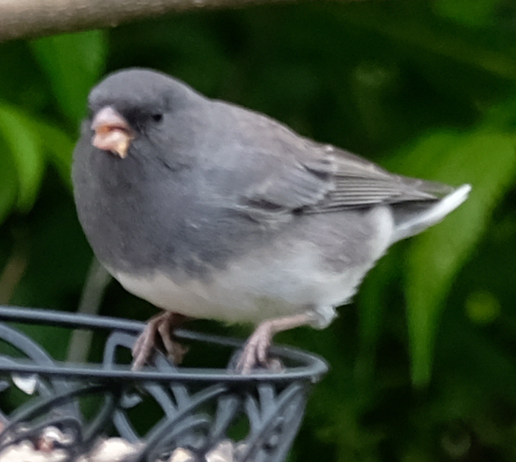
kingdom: Animalia
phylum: Chordata
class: Aves
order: Passeriformes
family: Passerellidae
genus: Junco
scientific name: Junco hyemalis
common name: Dark-eyed junco
